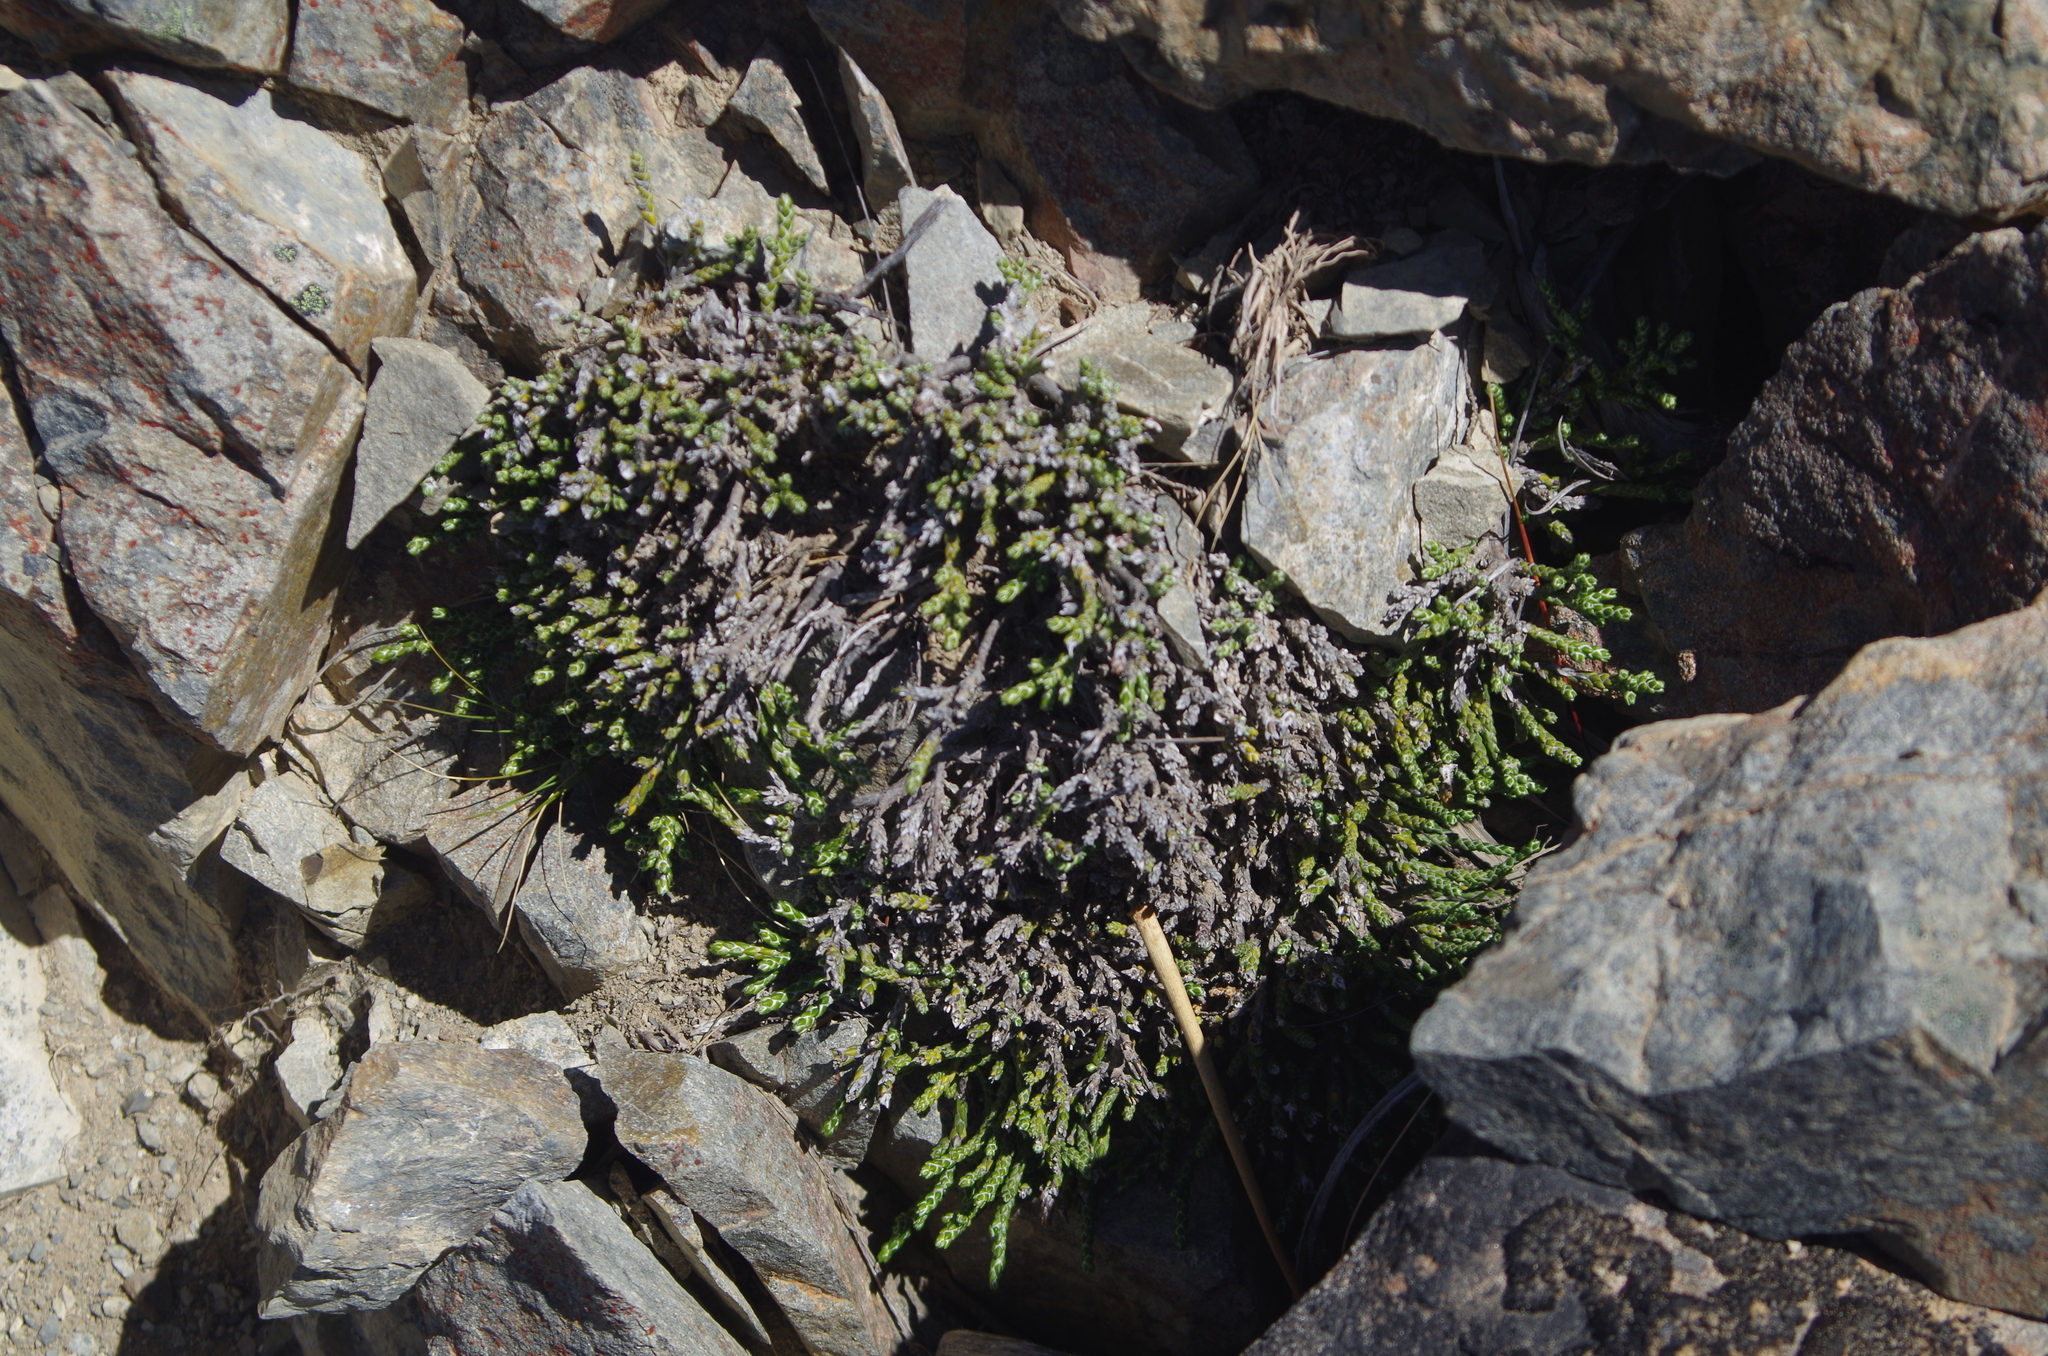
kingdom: Plantae
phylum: Tracheophyta
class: Magnoliopsida
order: Asterales
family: Asteraceae
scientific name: Asteraceae
